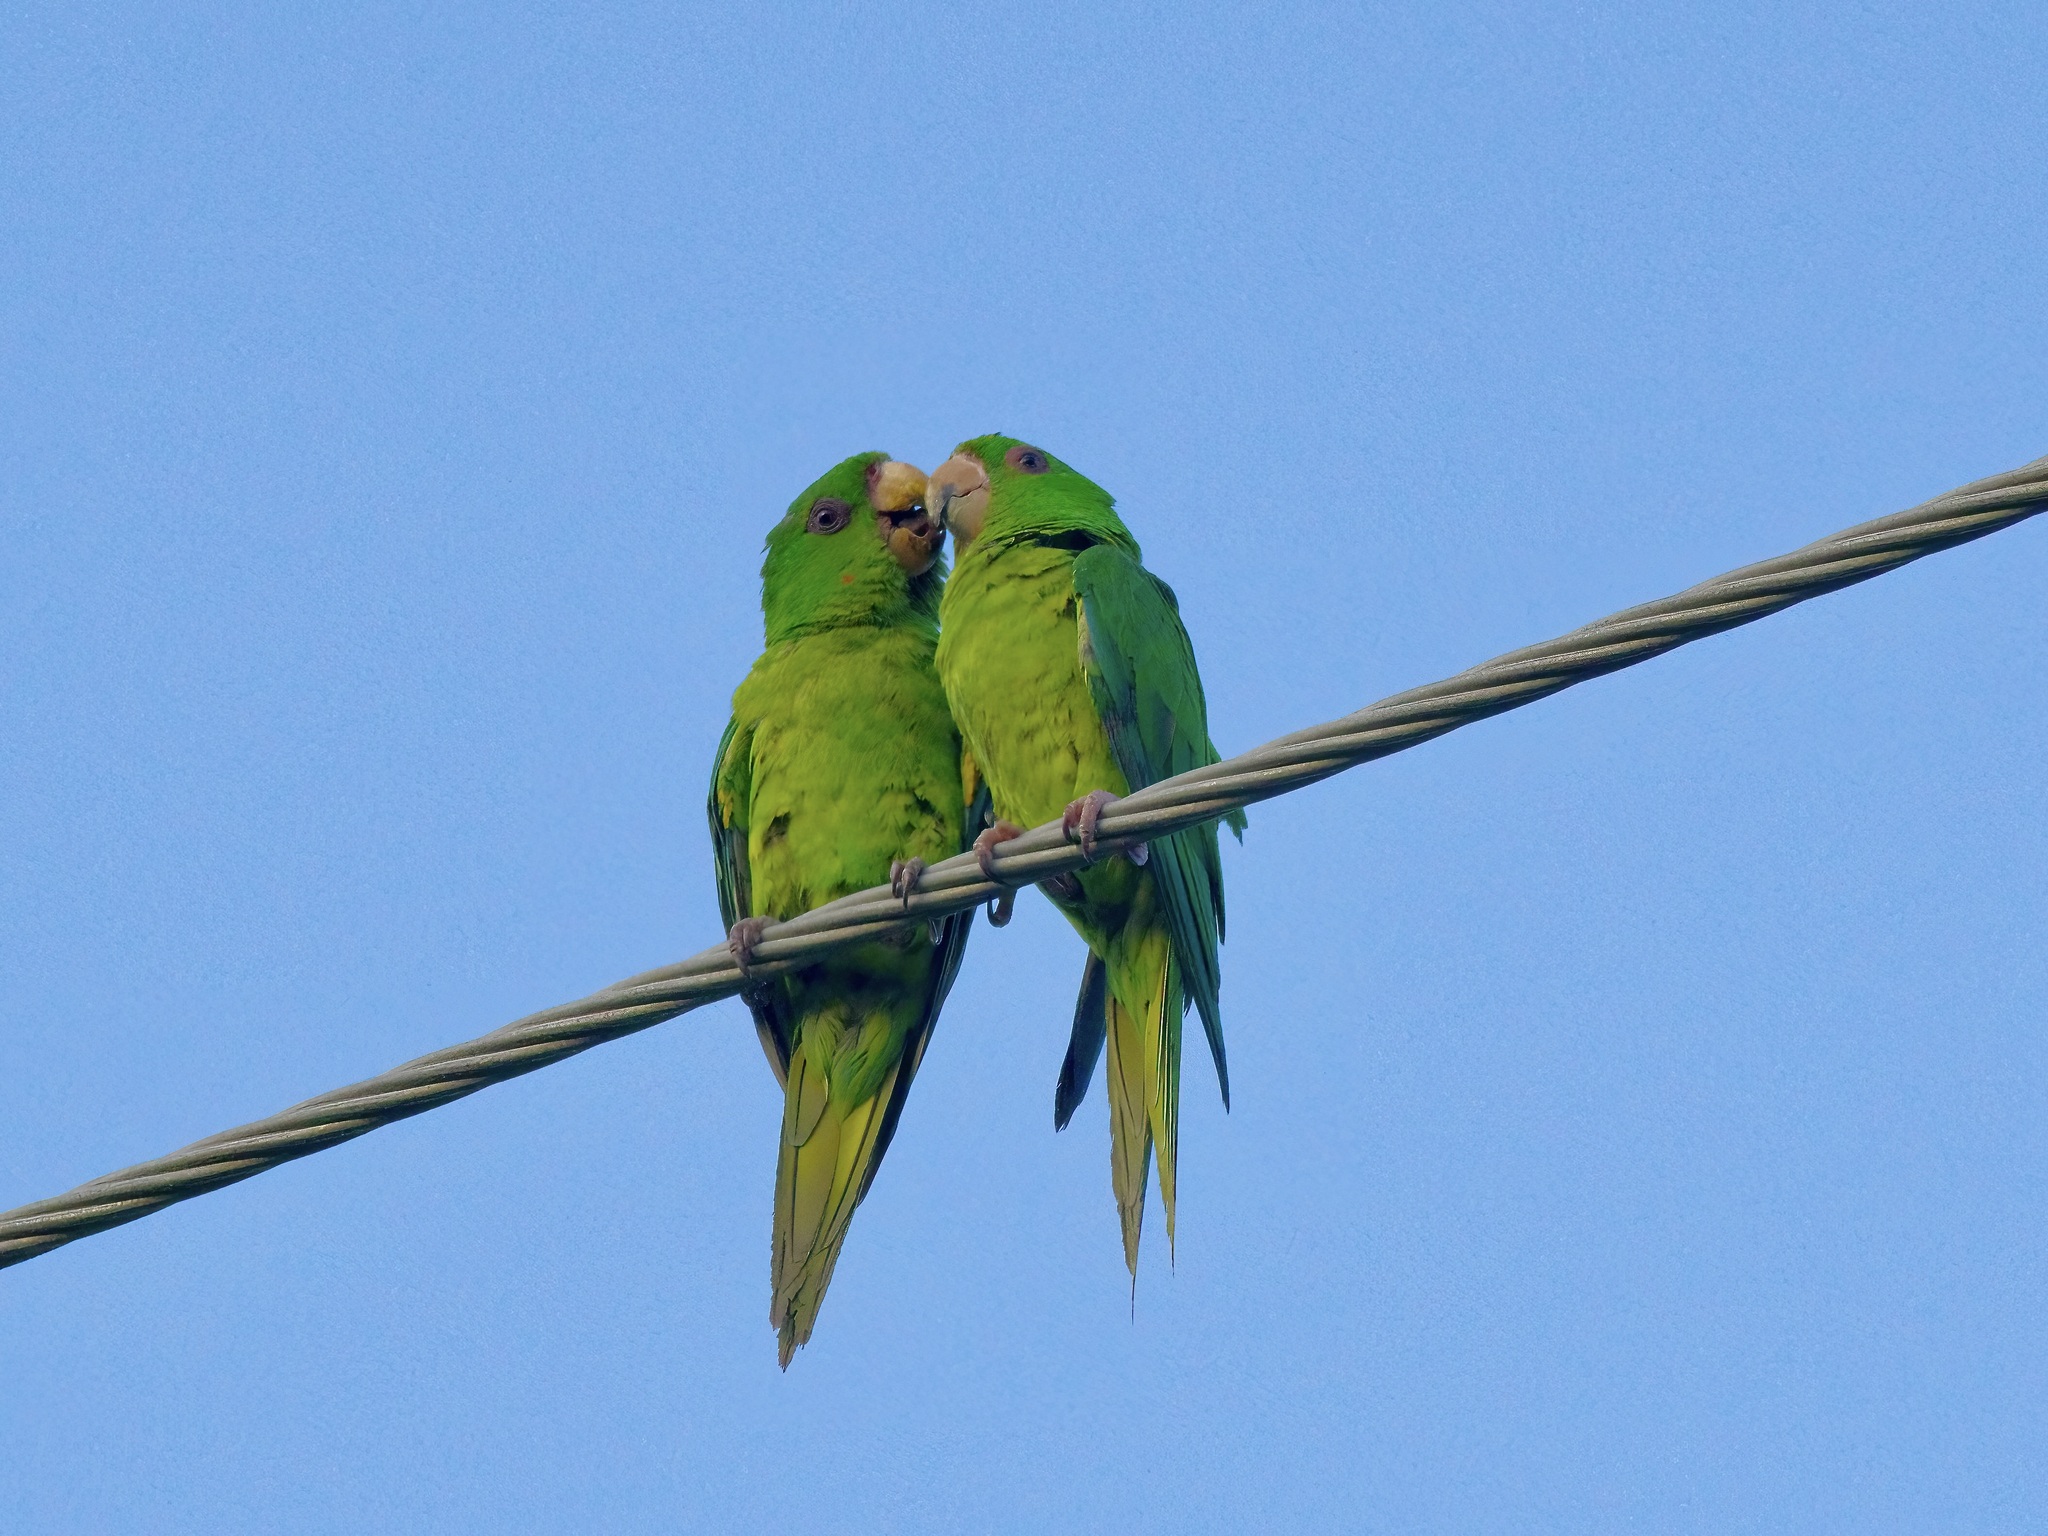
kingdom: Animalia
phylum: Chordata
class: Aves
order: Psittaciformes
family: Psittacidae
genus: Aratinga
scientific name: Aratinga holochlora
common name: Green parakeet
